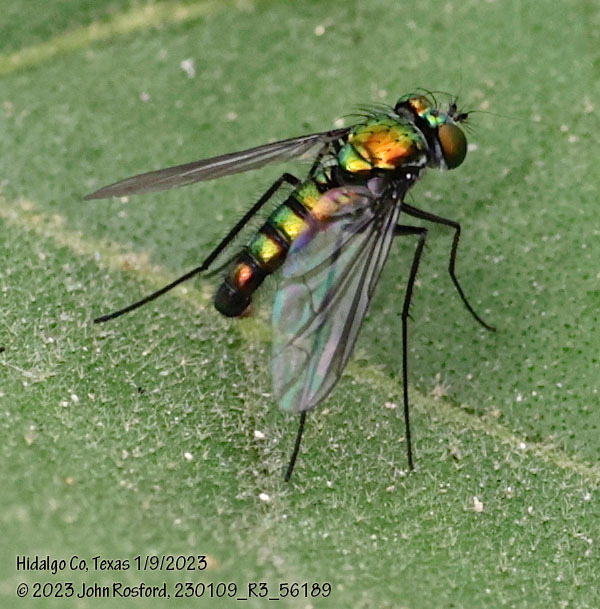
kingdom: Animalia
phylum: Arthropoda
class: Insecta
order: Diptera
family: Dolichopodidae
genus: Condylostylus
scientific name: Condylostylus longicornis
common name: Long-legged fly
